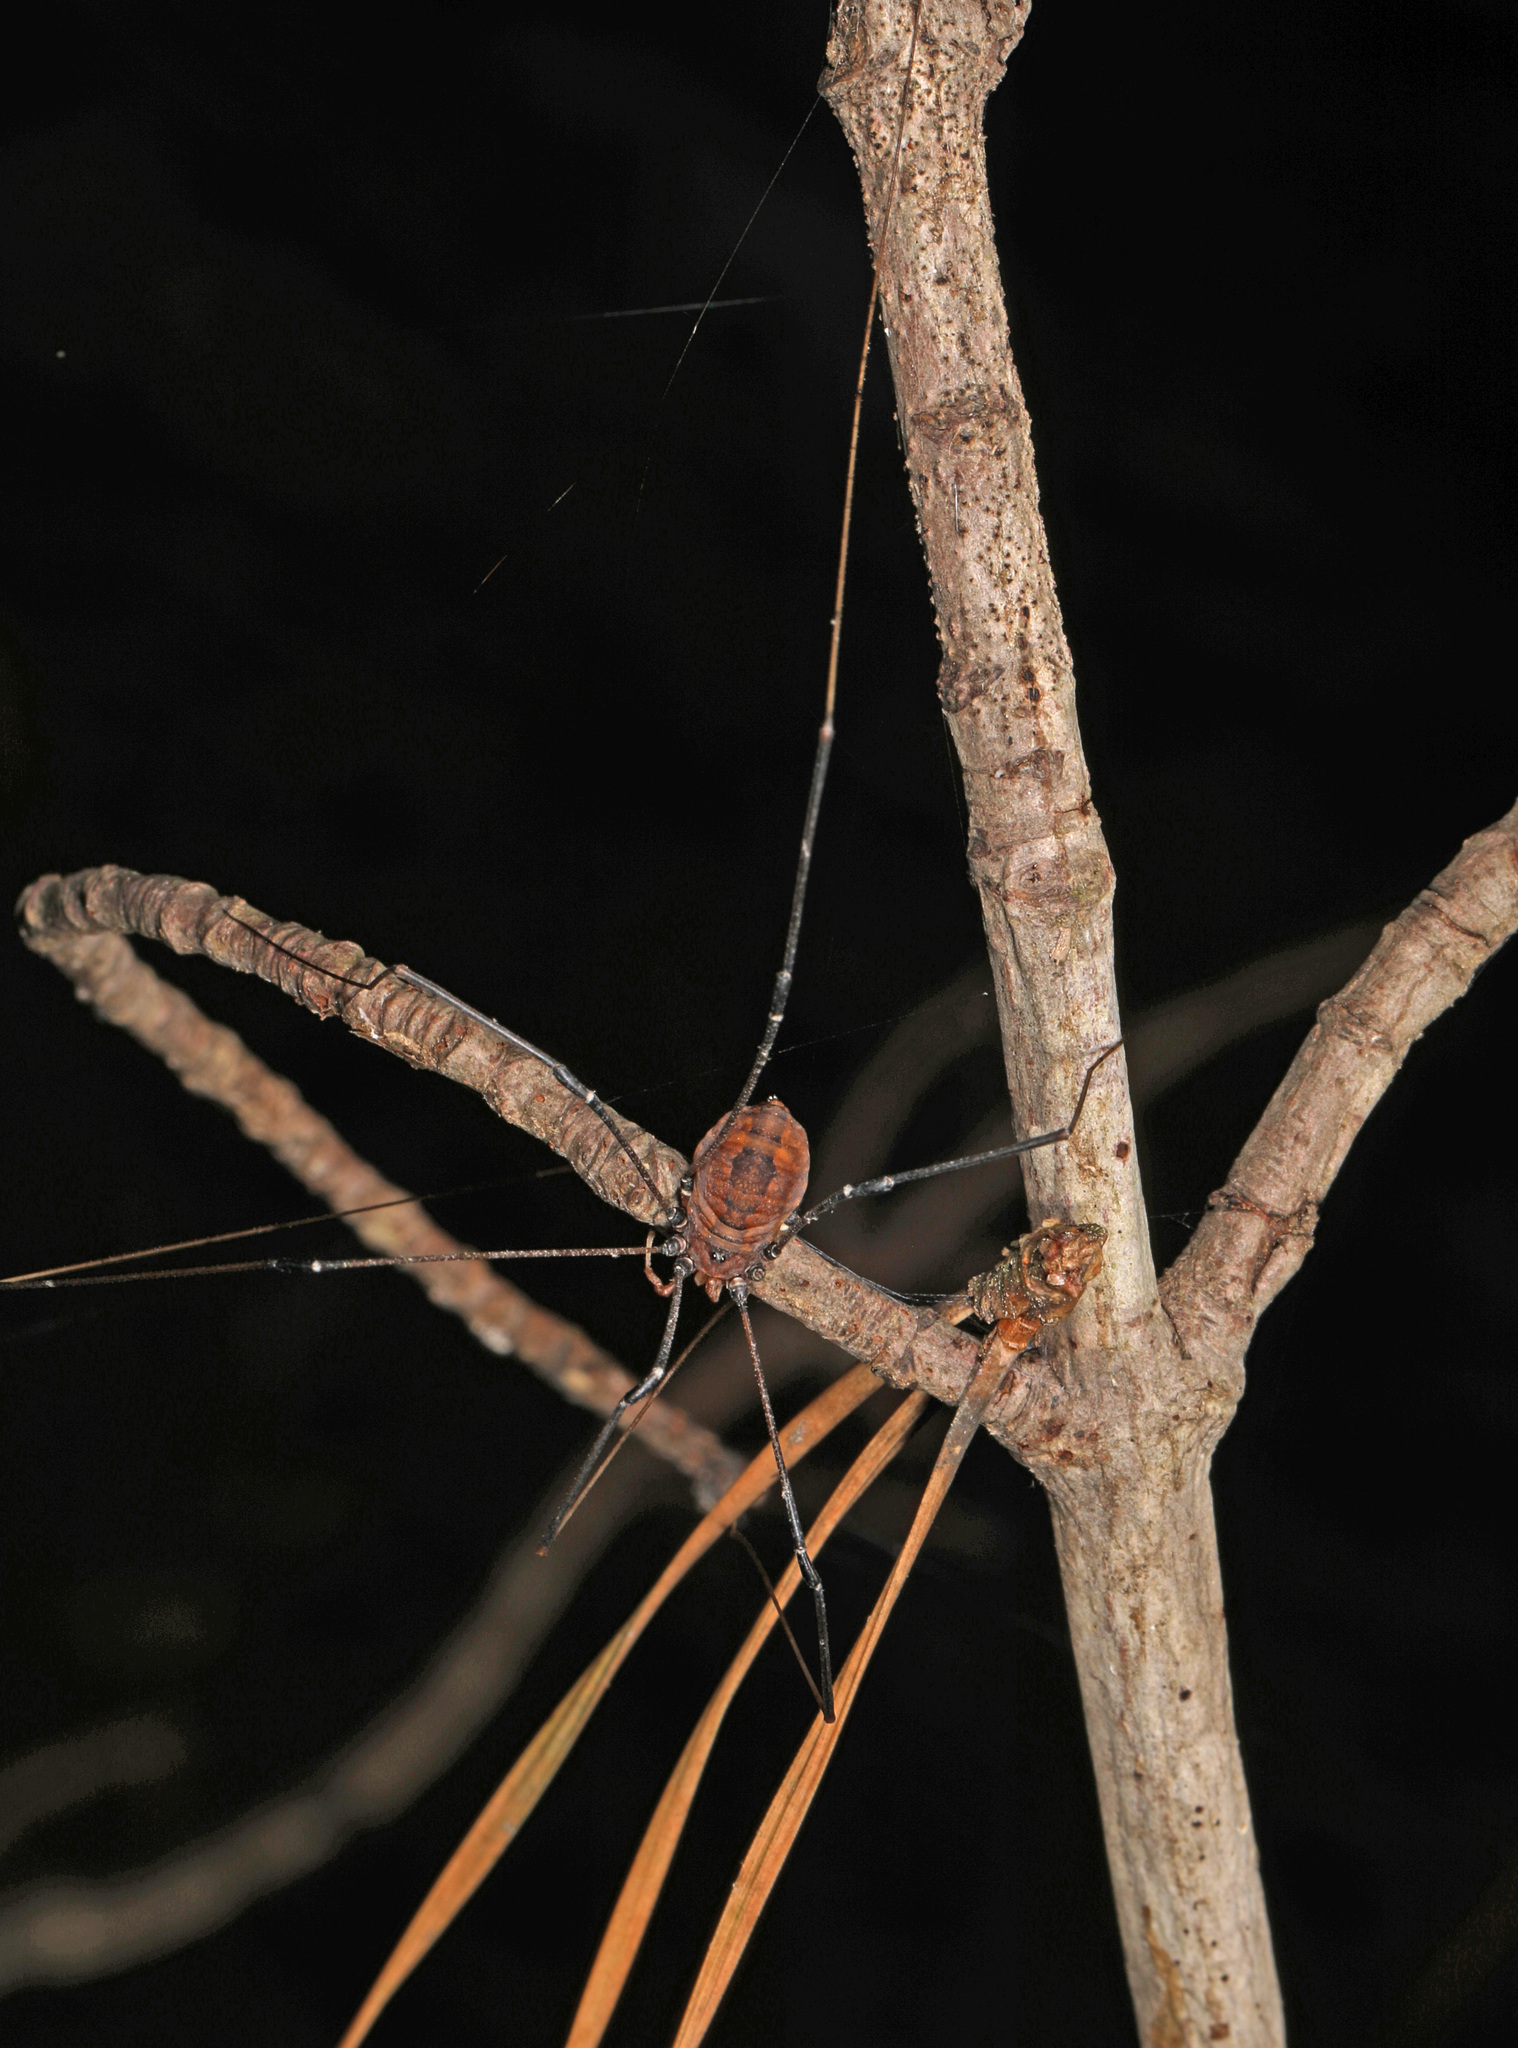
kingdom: Animalia
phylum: Arthropoda
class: Arachnida
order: Opiliones
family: Sclerosomatidae
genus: Leiobunum
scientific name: Leiobunum vittatum
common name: Eastern harvestman
